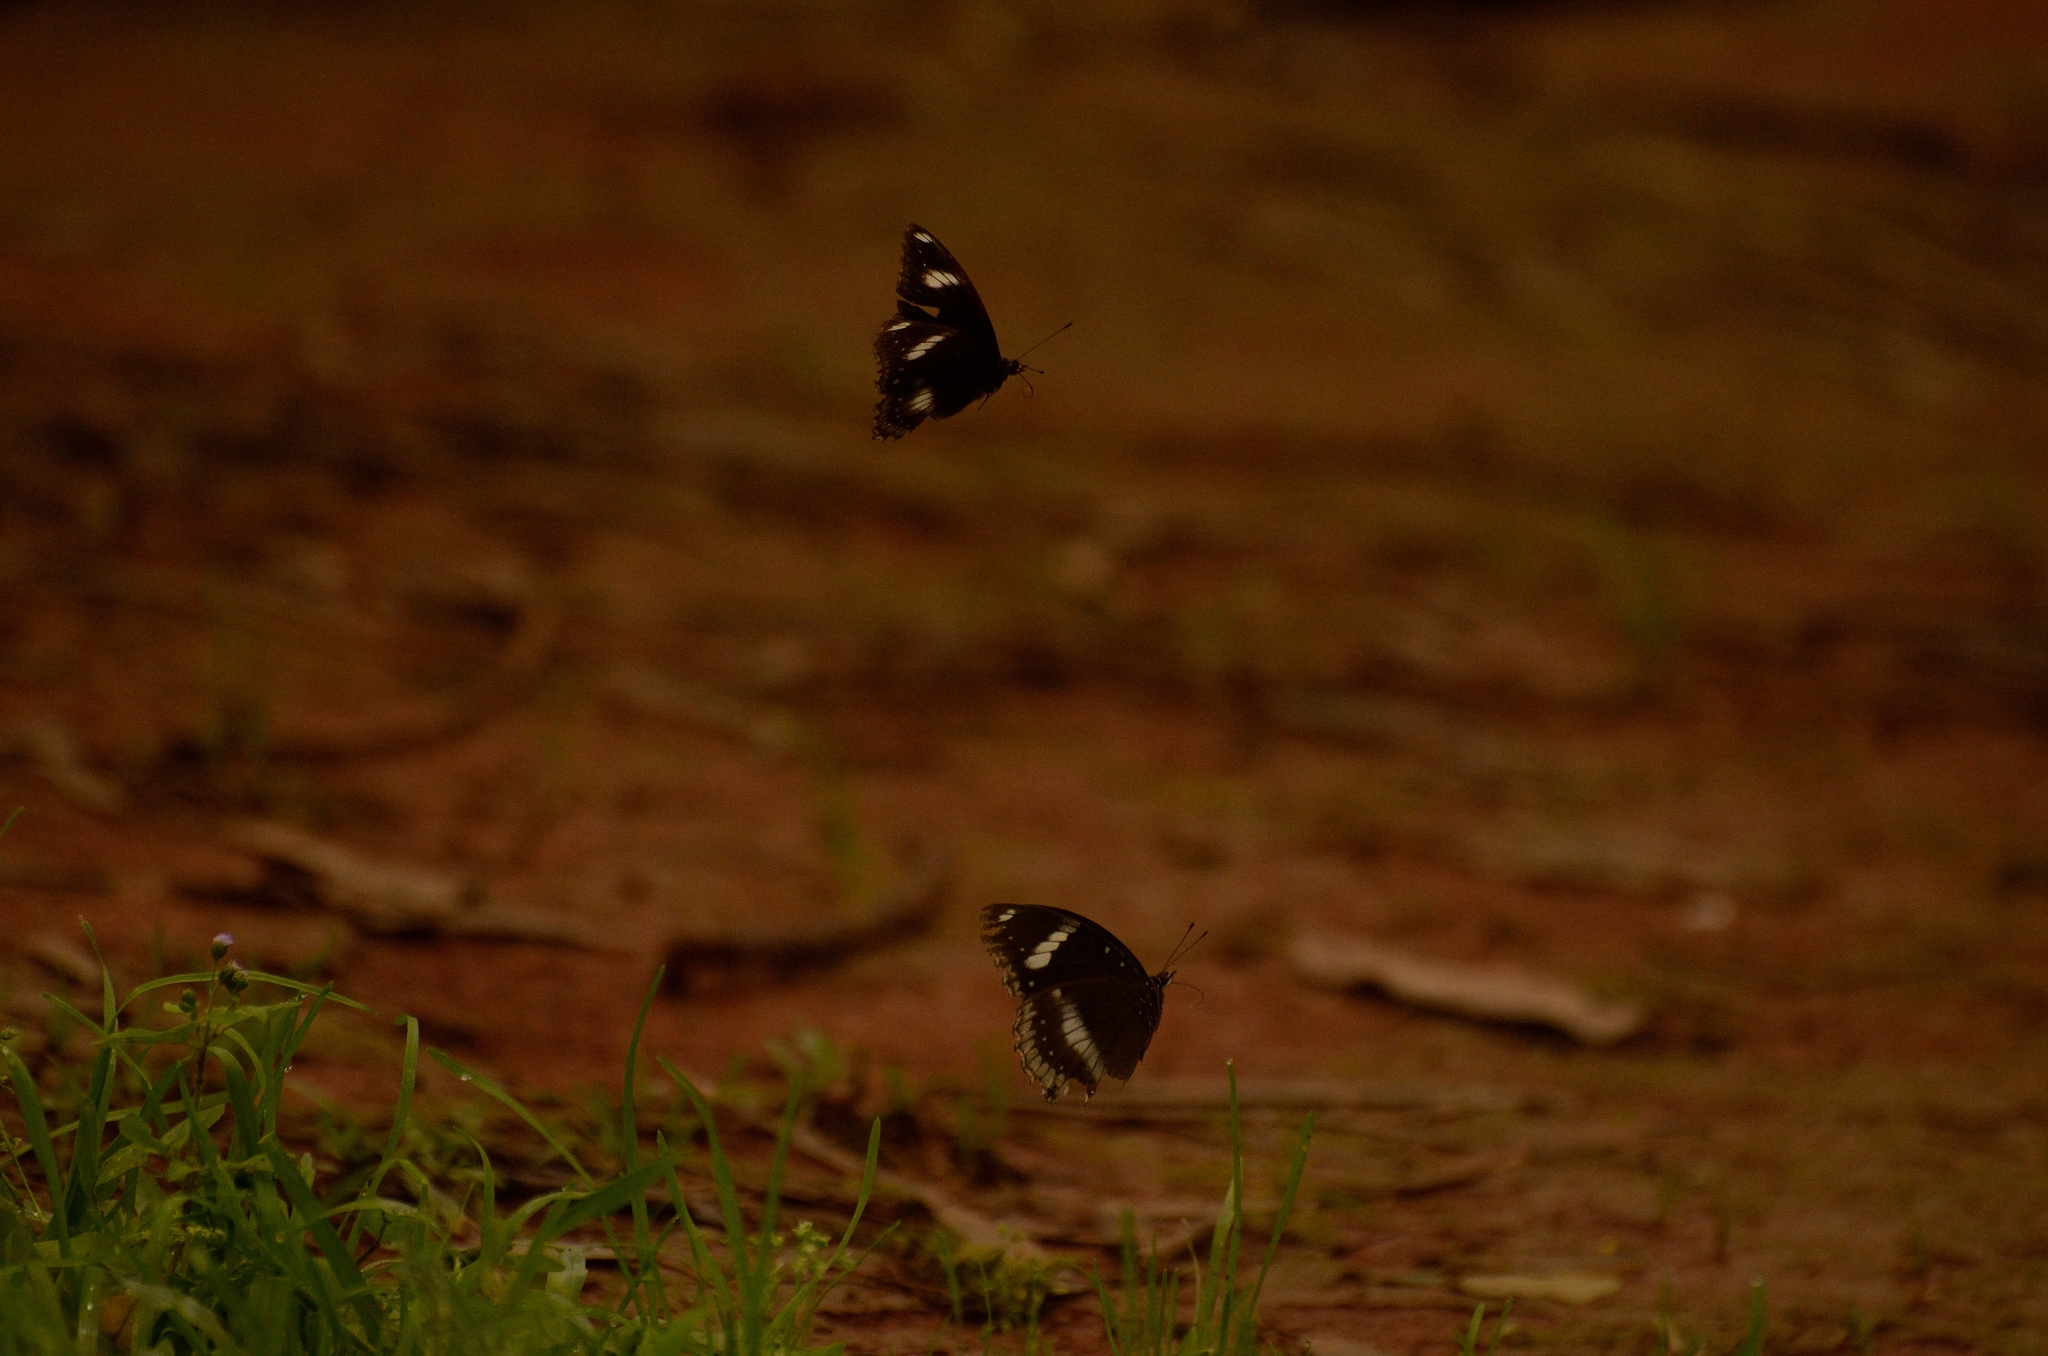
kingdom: Animalia
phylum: Arthropoda
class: Insecta
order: Lepidoptera
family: Nymphalidae
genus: Hypolimnas
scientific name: Hypolimnas bolina
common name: Great eggfly
